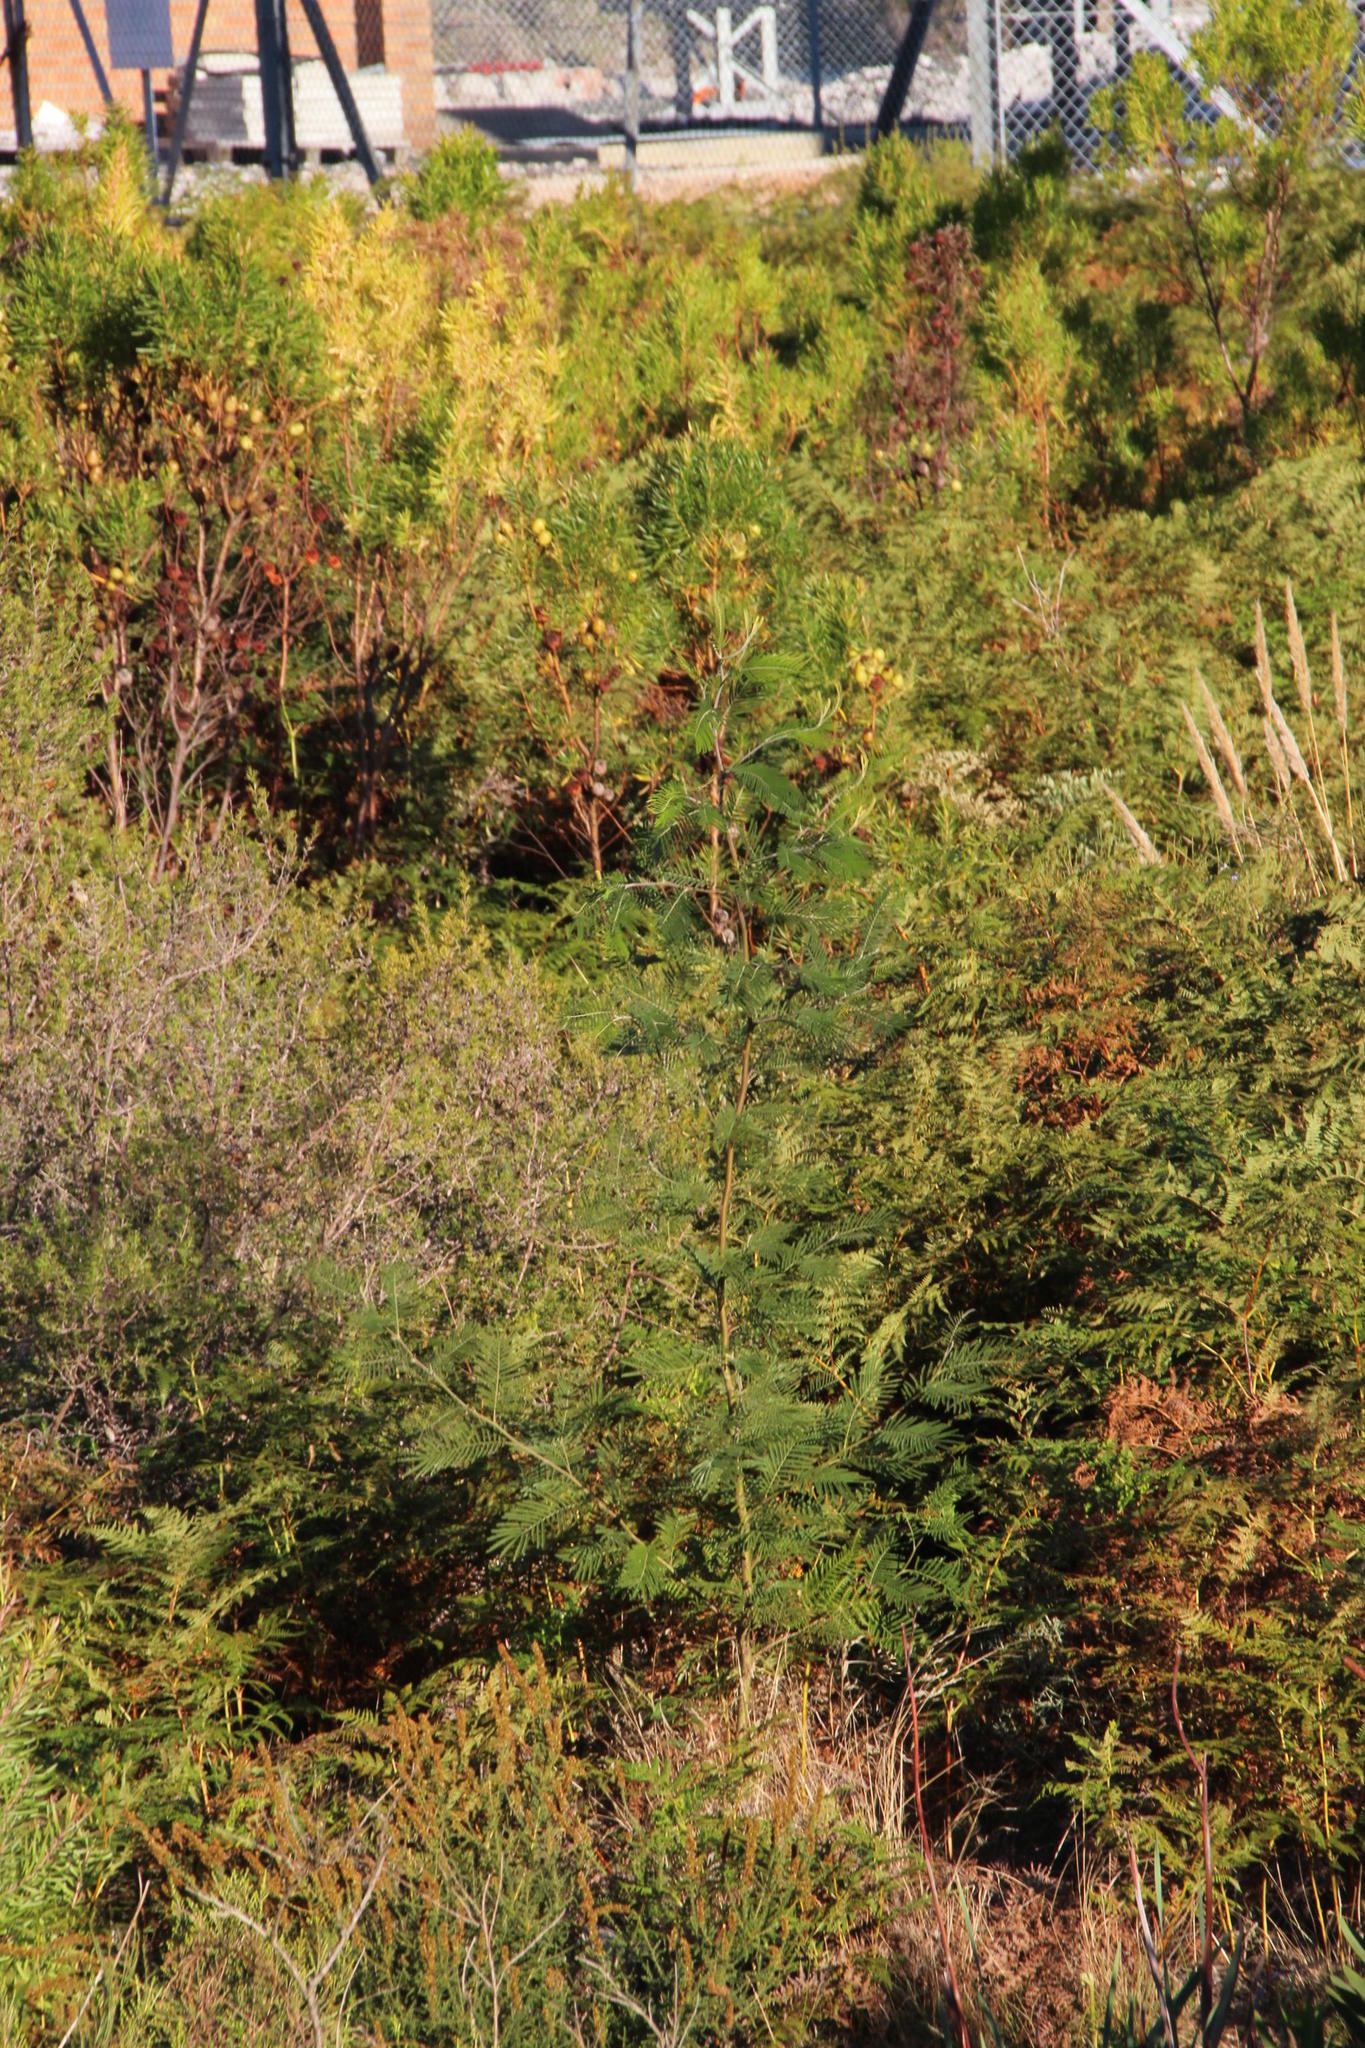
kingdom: Plantae
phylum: Tracheophyta
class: Magnoliopsida
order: Fabales
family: Fabaceae
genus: Acacia
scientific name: Acacia mearnsii
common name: Black wattle
